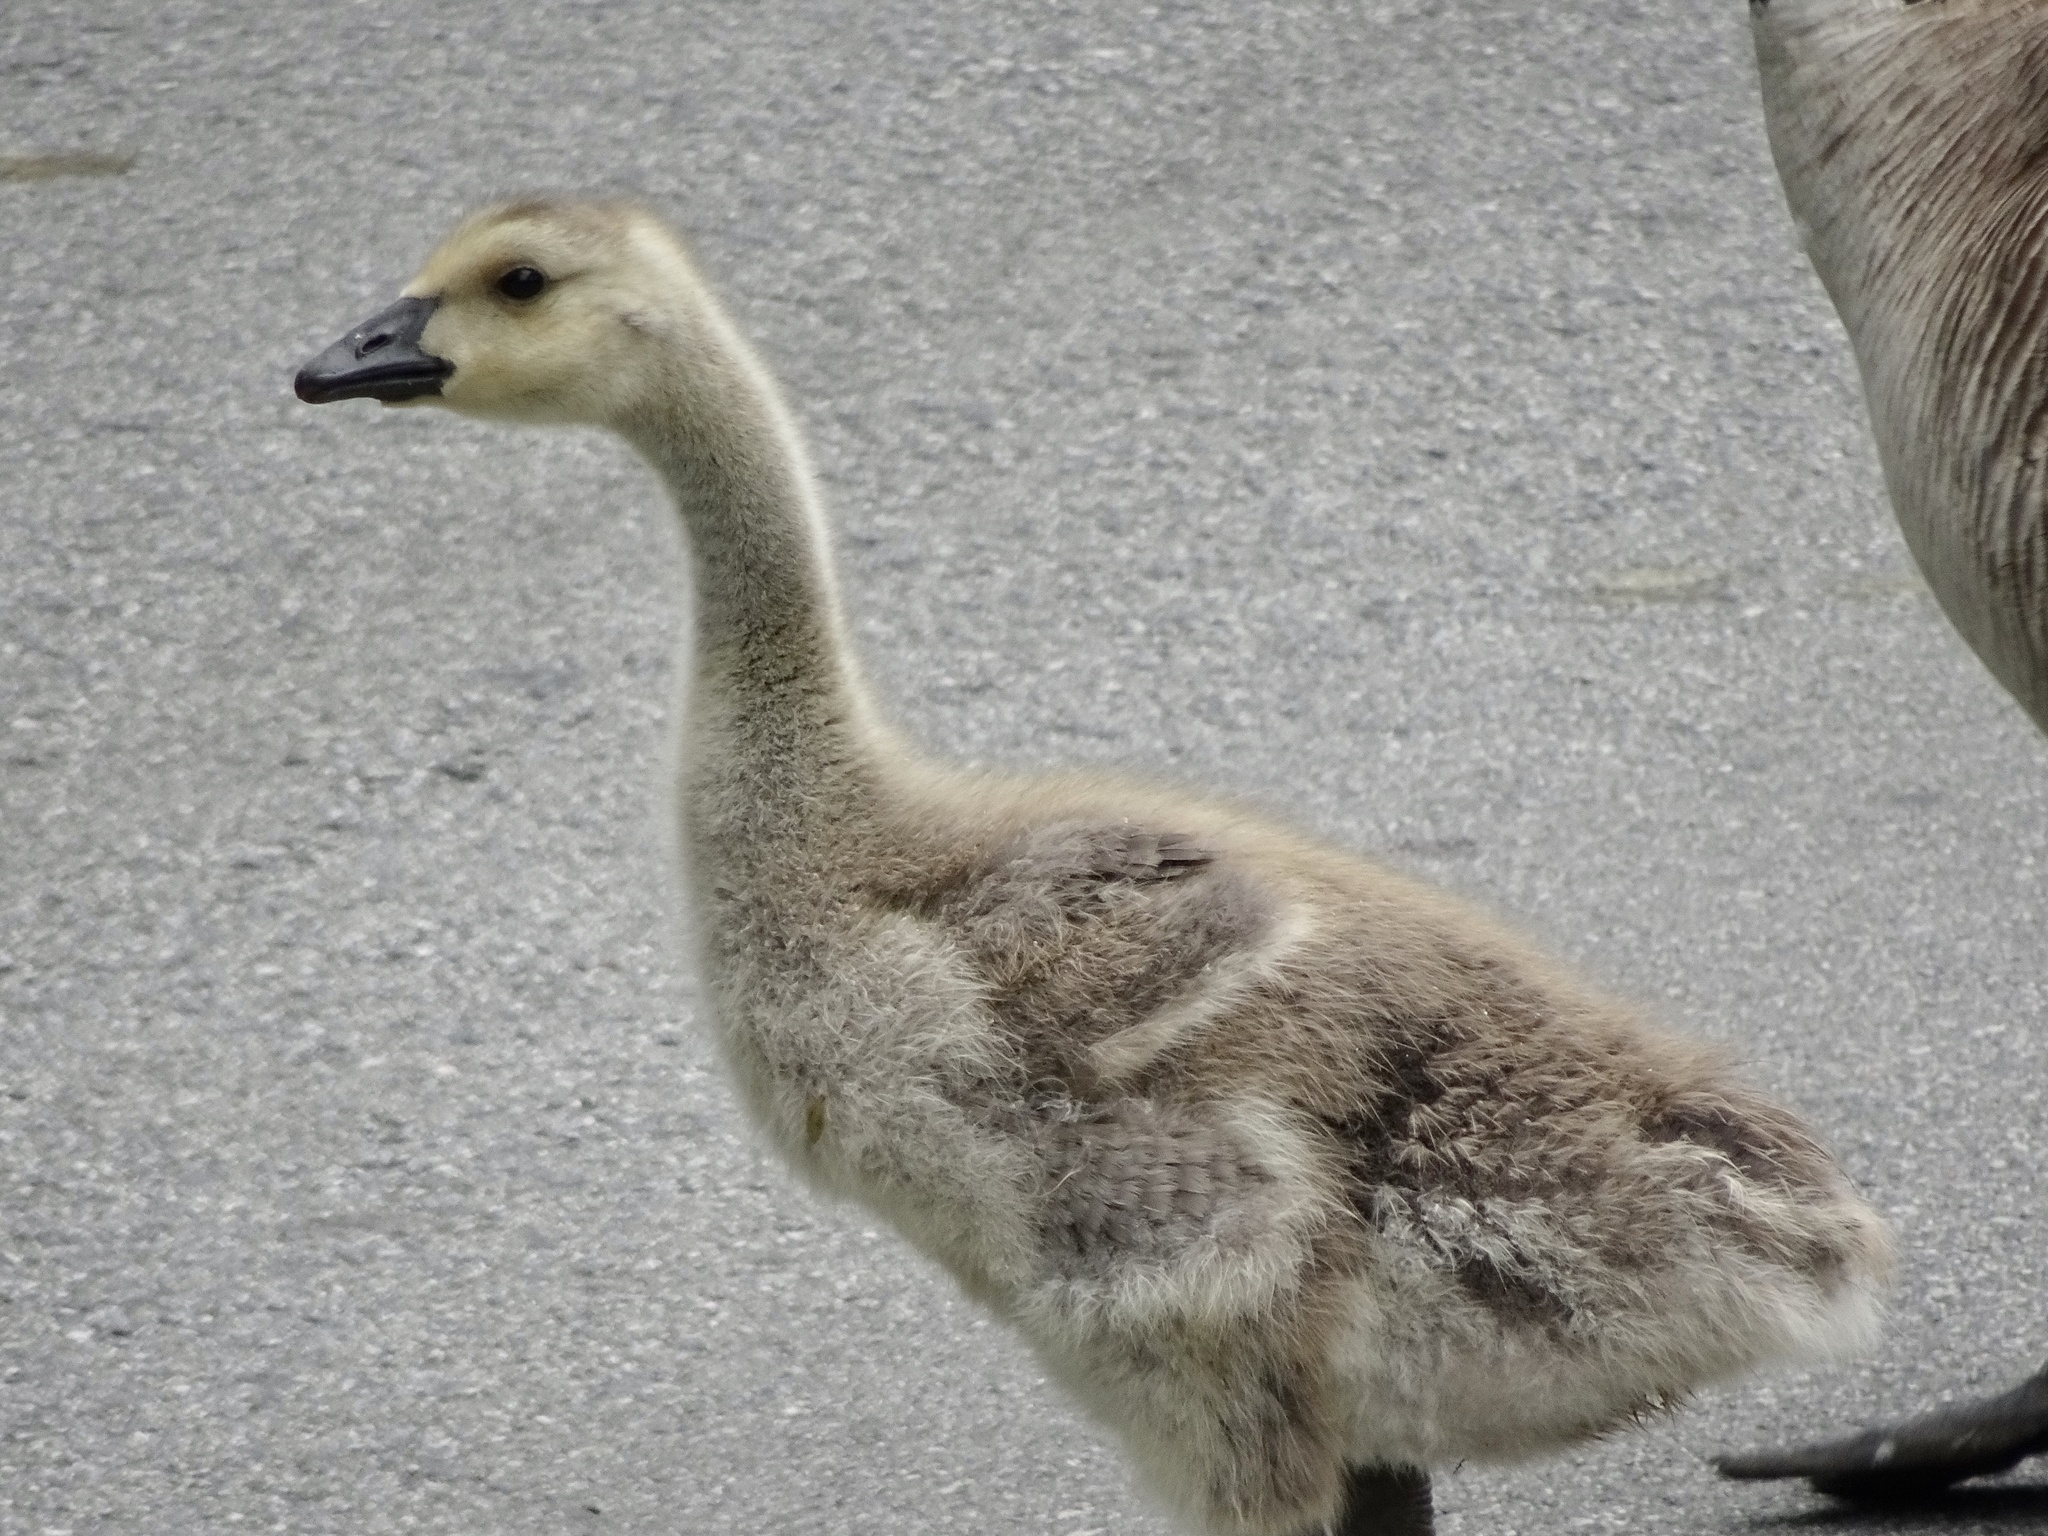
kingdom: Animalia
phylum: Chordata
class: Aves
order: Anseriformes
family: Anatidae
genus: Branta
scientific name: Branta canadensis
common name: Canada goose
